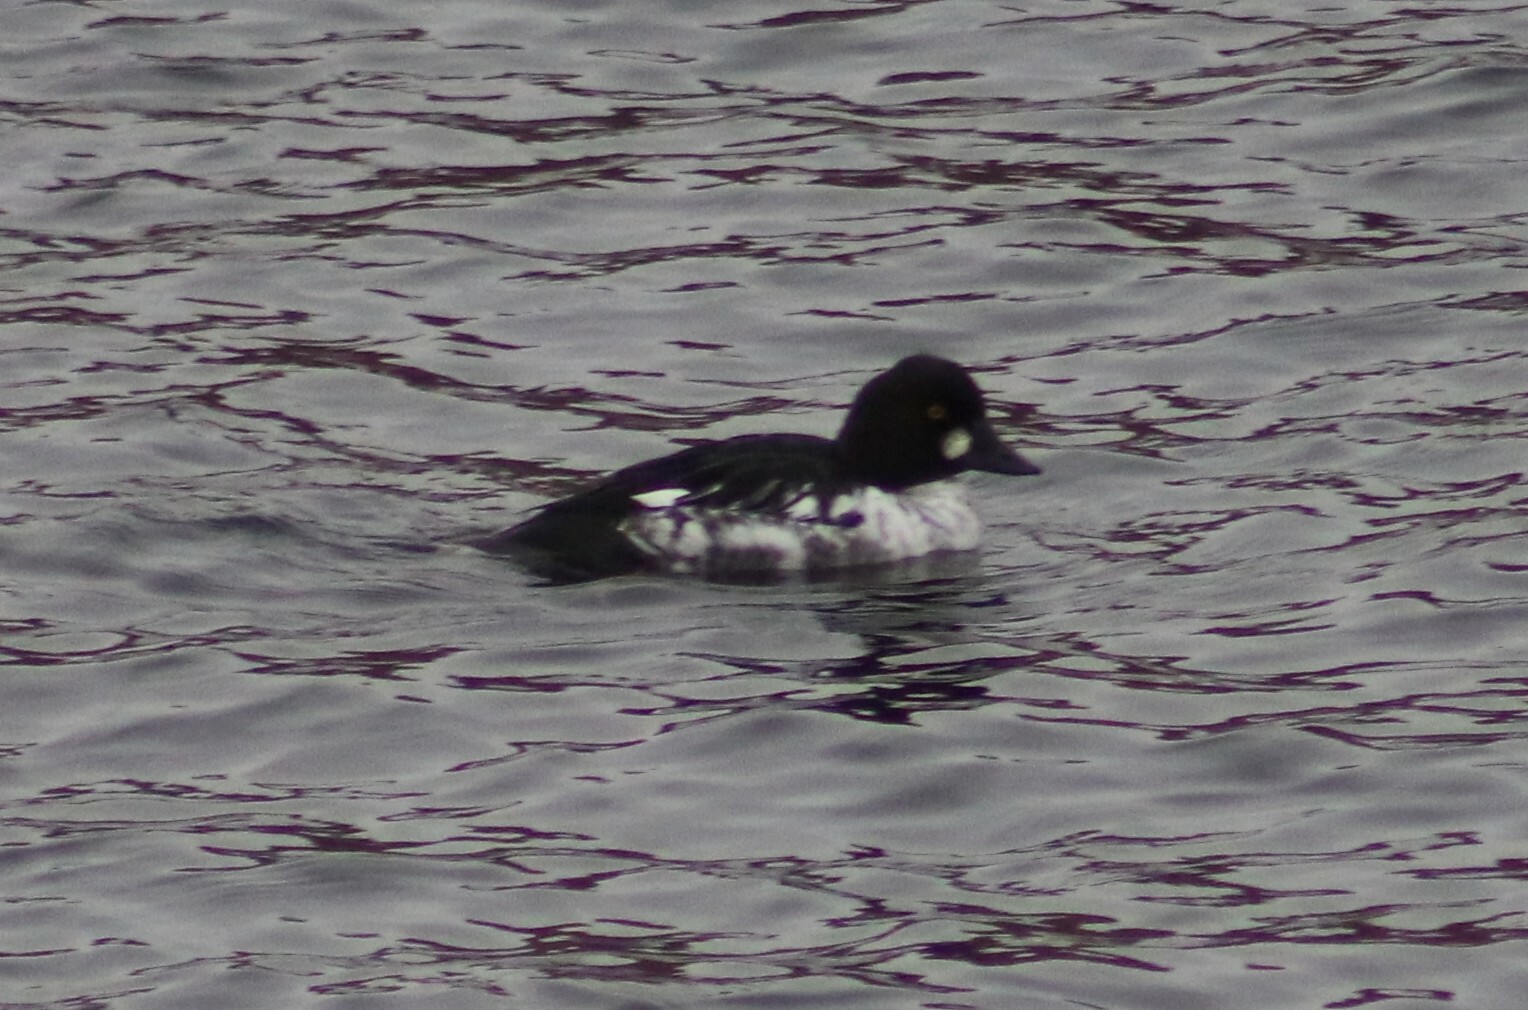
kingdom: Animalia
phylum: Chordata
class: Aves
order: Anseriformes
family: Anatidae
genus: Bucephala
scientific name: Bucephala clangula
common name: Common goldeneye
